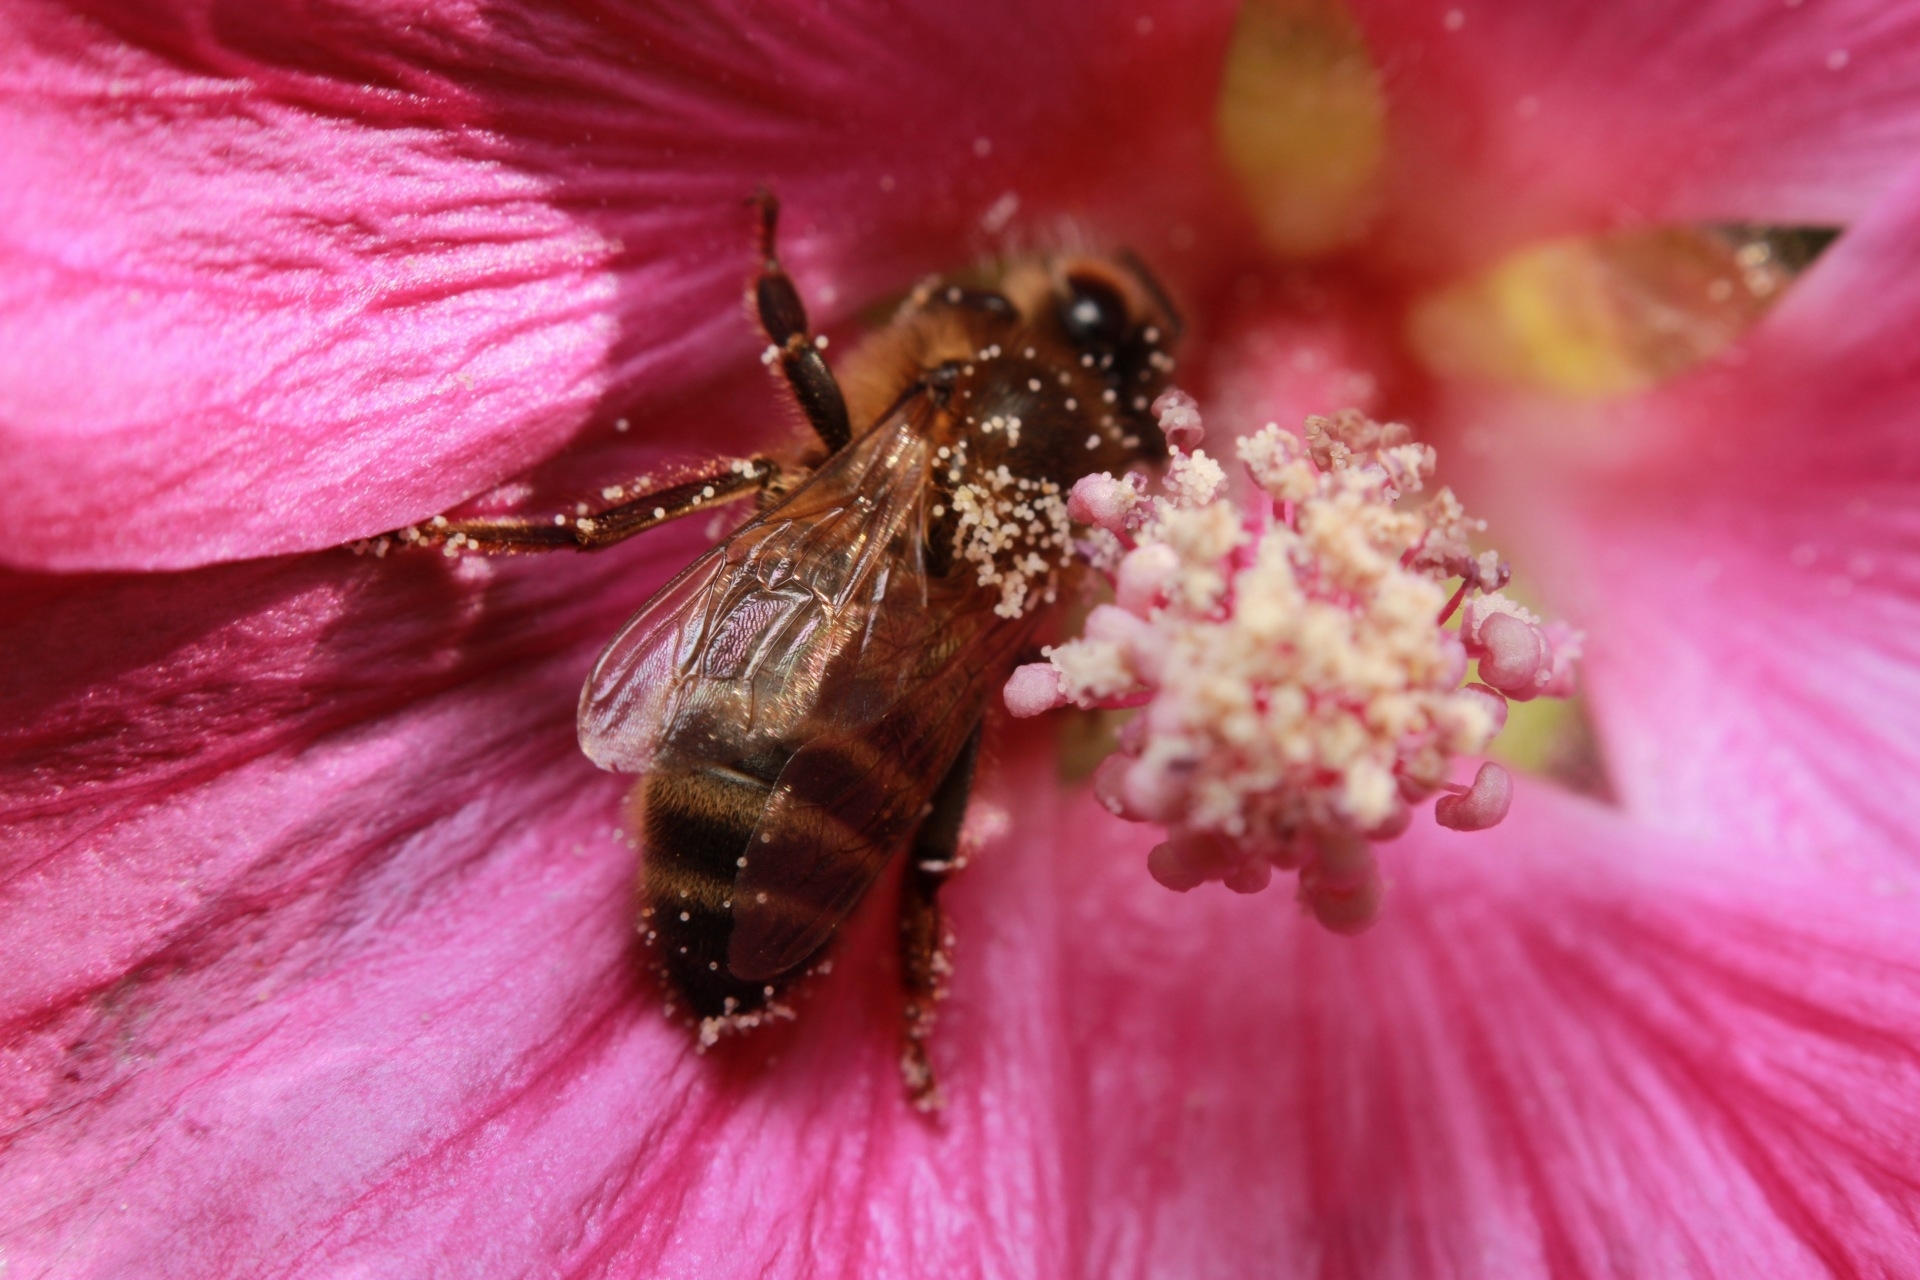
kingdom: Animalia
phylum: Arthropoda
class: Insecta
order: Hymenoptera
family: Apidae
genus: Apis
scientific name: Apis mellifera
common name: Honey bee
